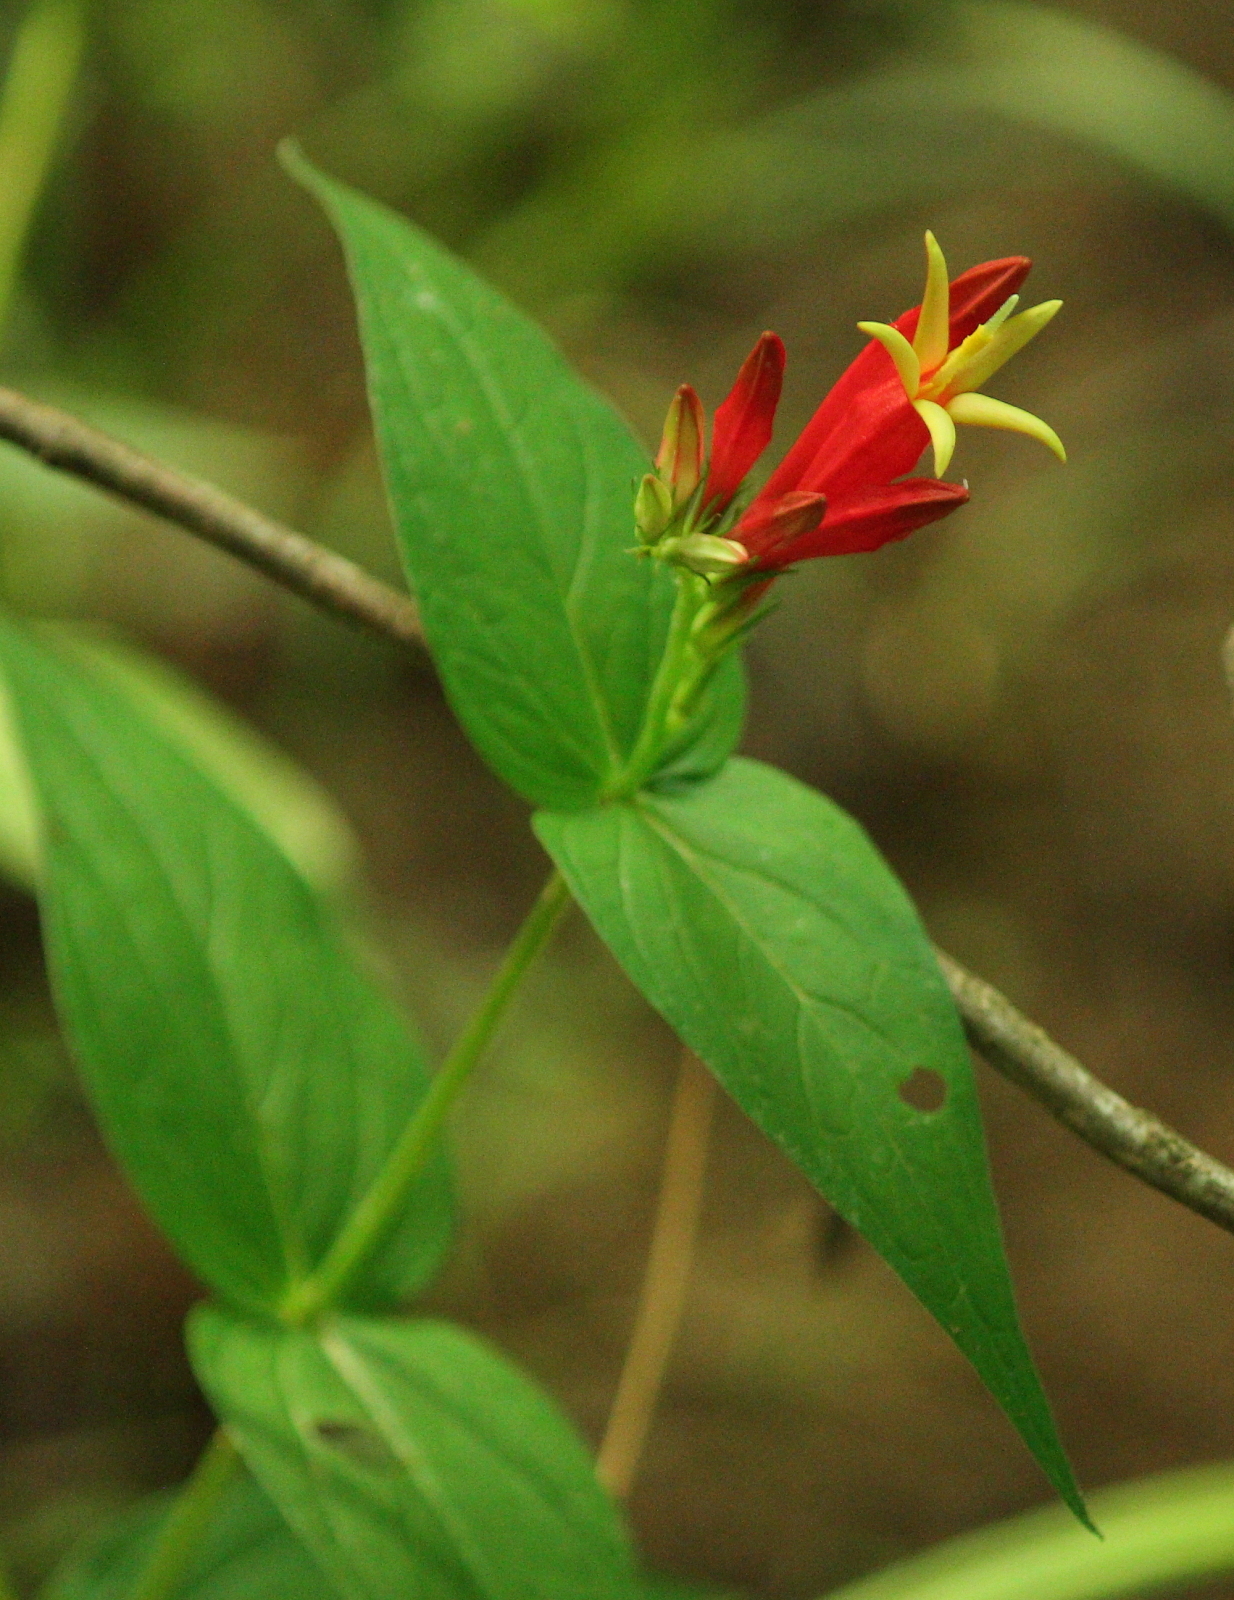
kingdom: Plantae
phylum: Tracheophyta
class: Magnoliopsida
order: Gentianales
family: Loganiaceae
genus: Spigelia
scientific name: Spigelia marilandica
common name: Indian-pink
